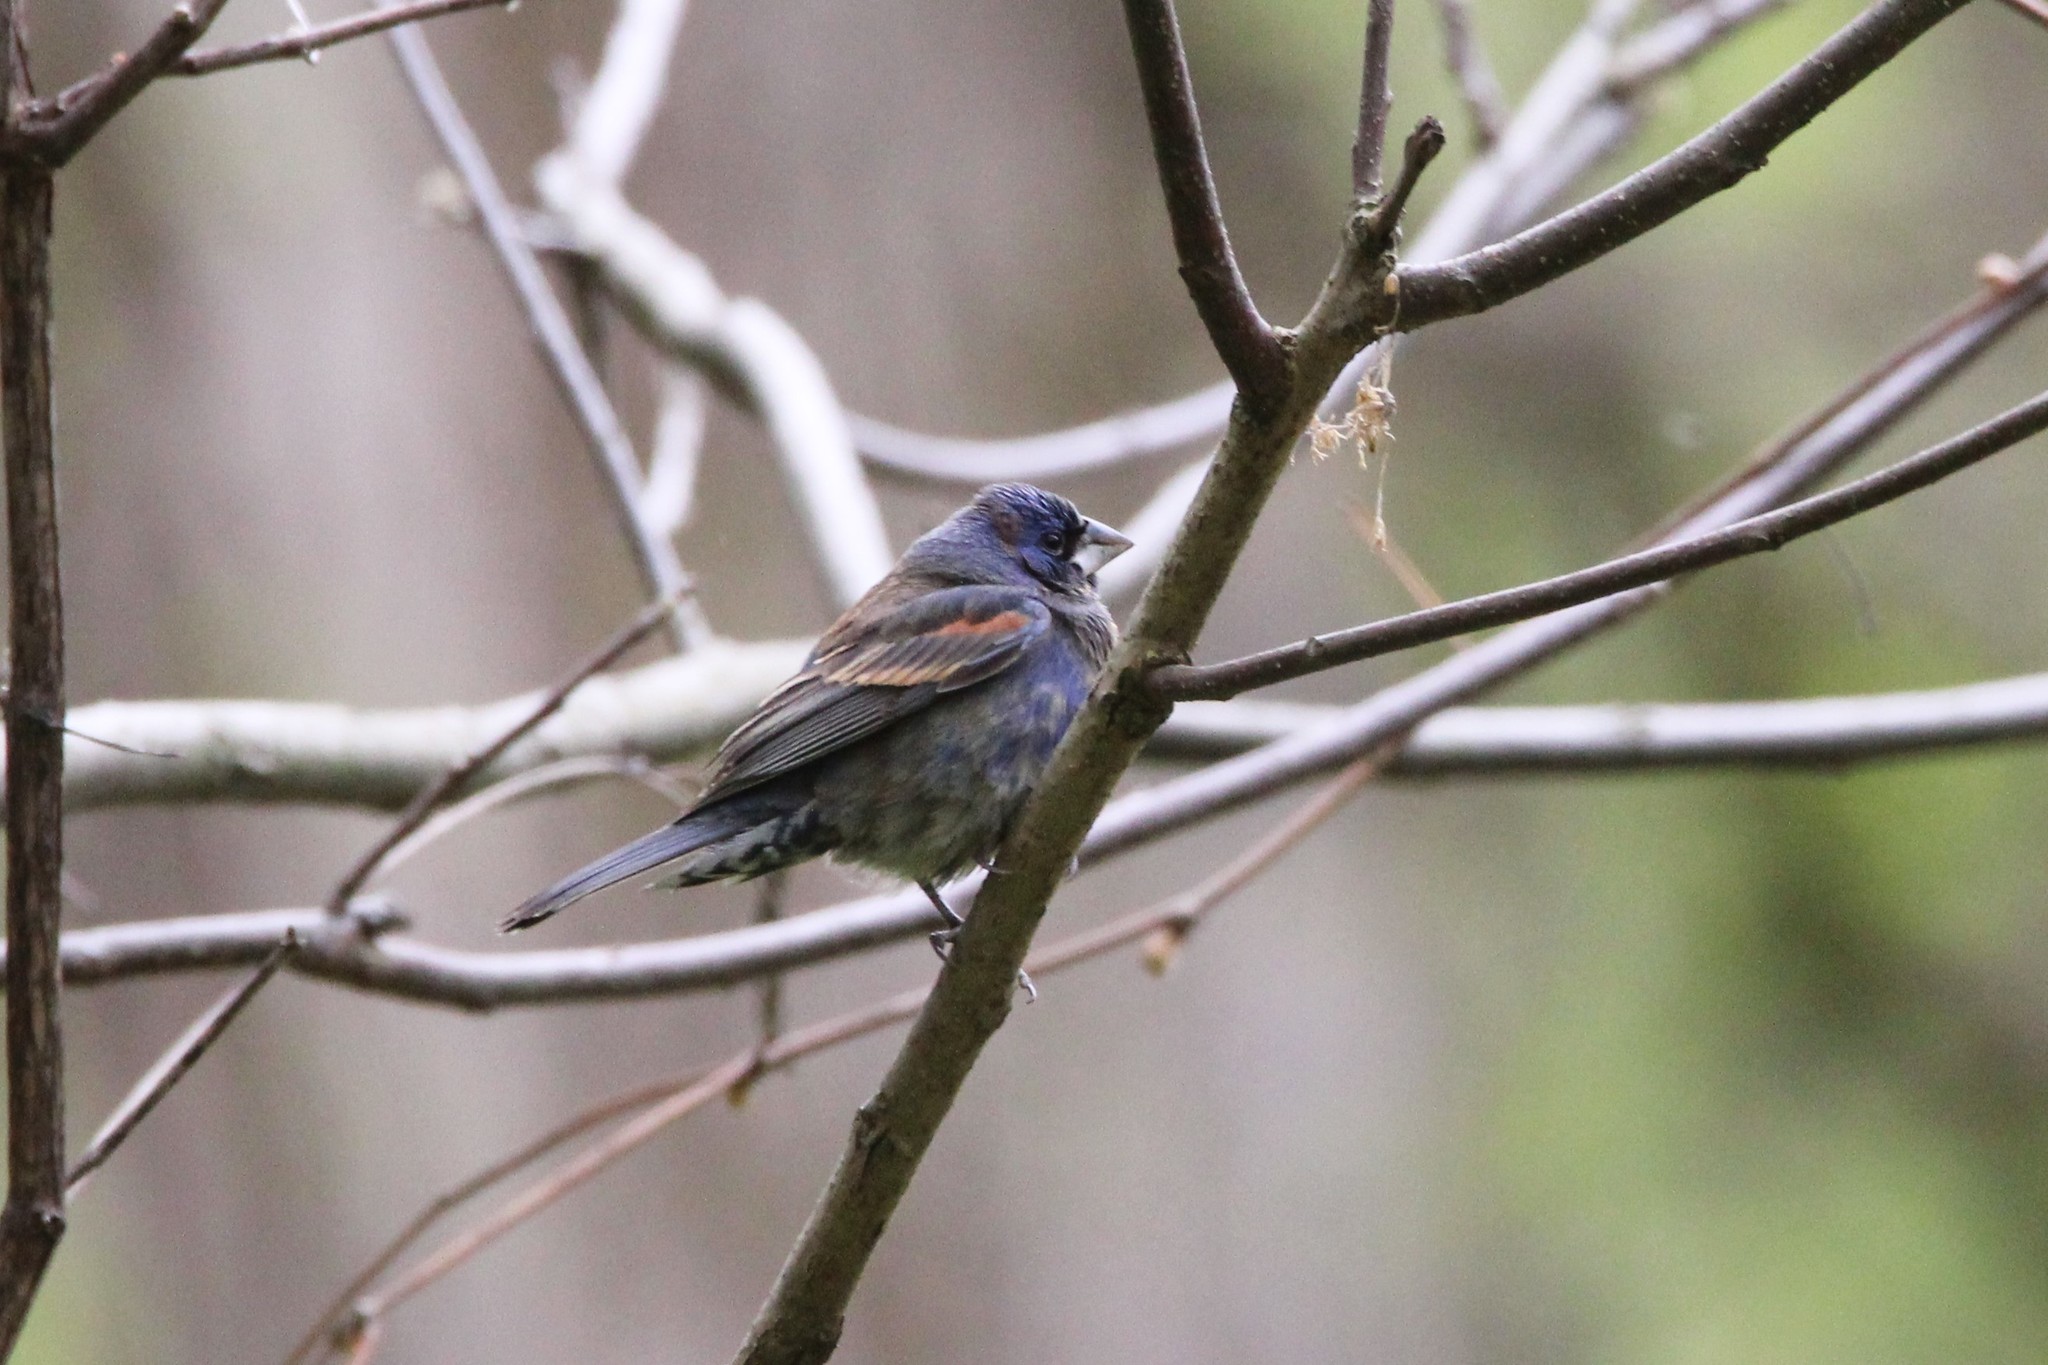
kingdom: Animalia
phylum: Chordata
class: Aves
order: Passeriformes
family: Cardinalidae
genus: Passerina
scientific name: Passerina caerulea
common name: Blue grosbeak
